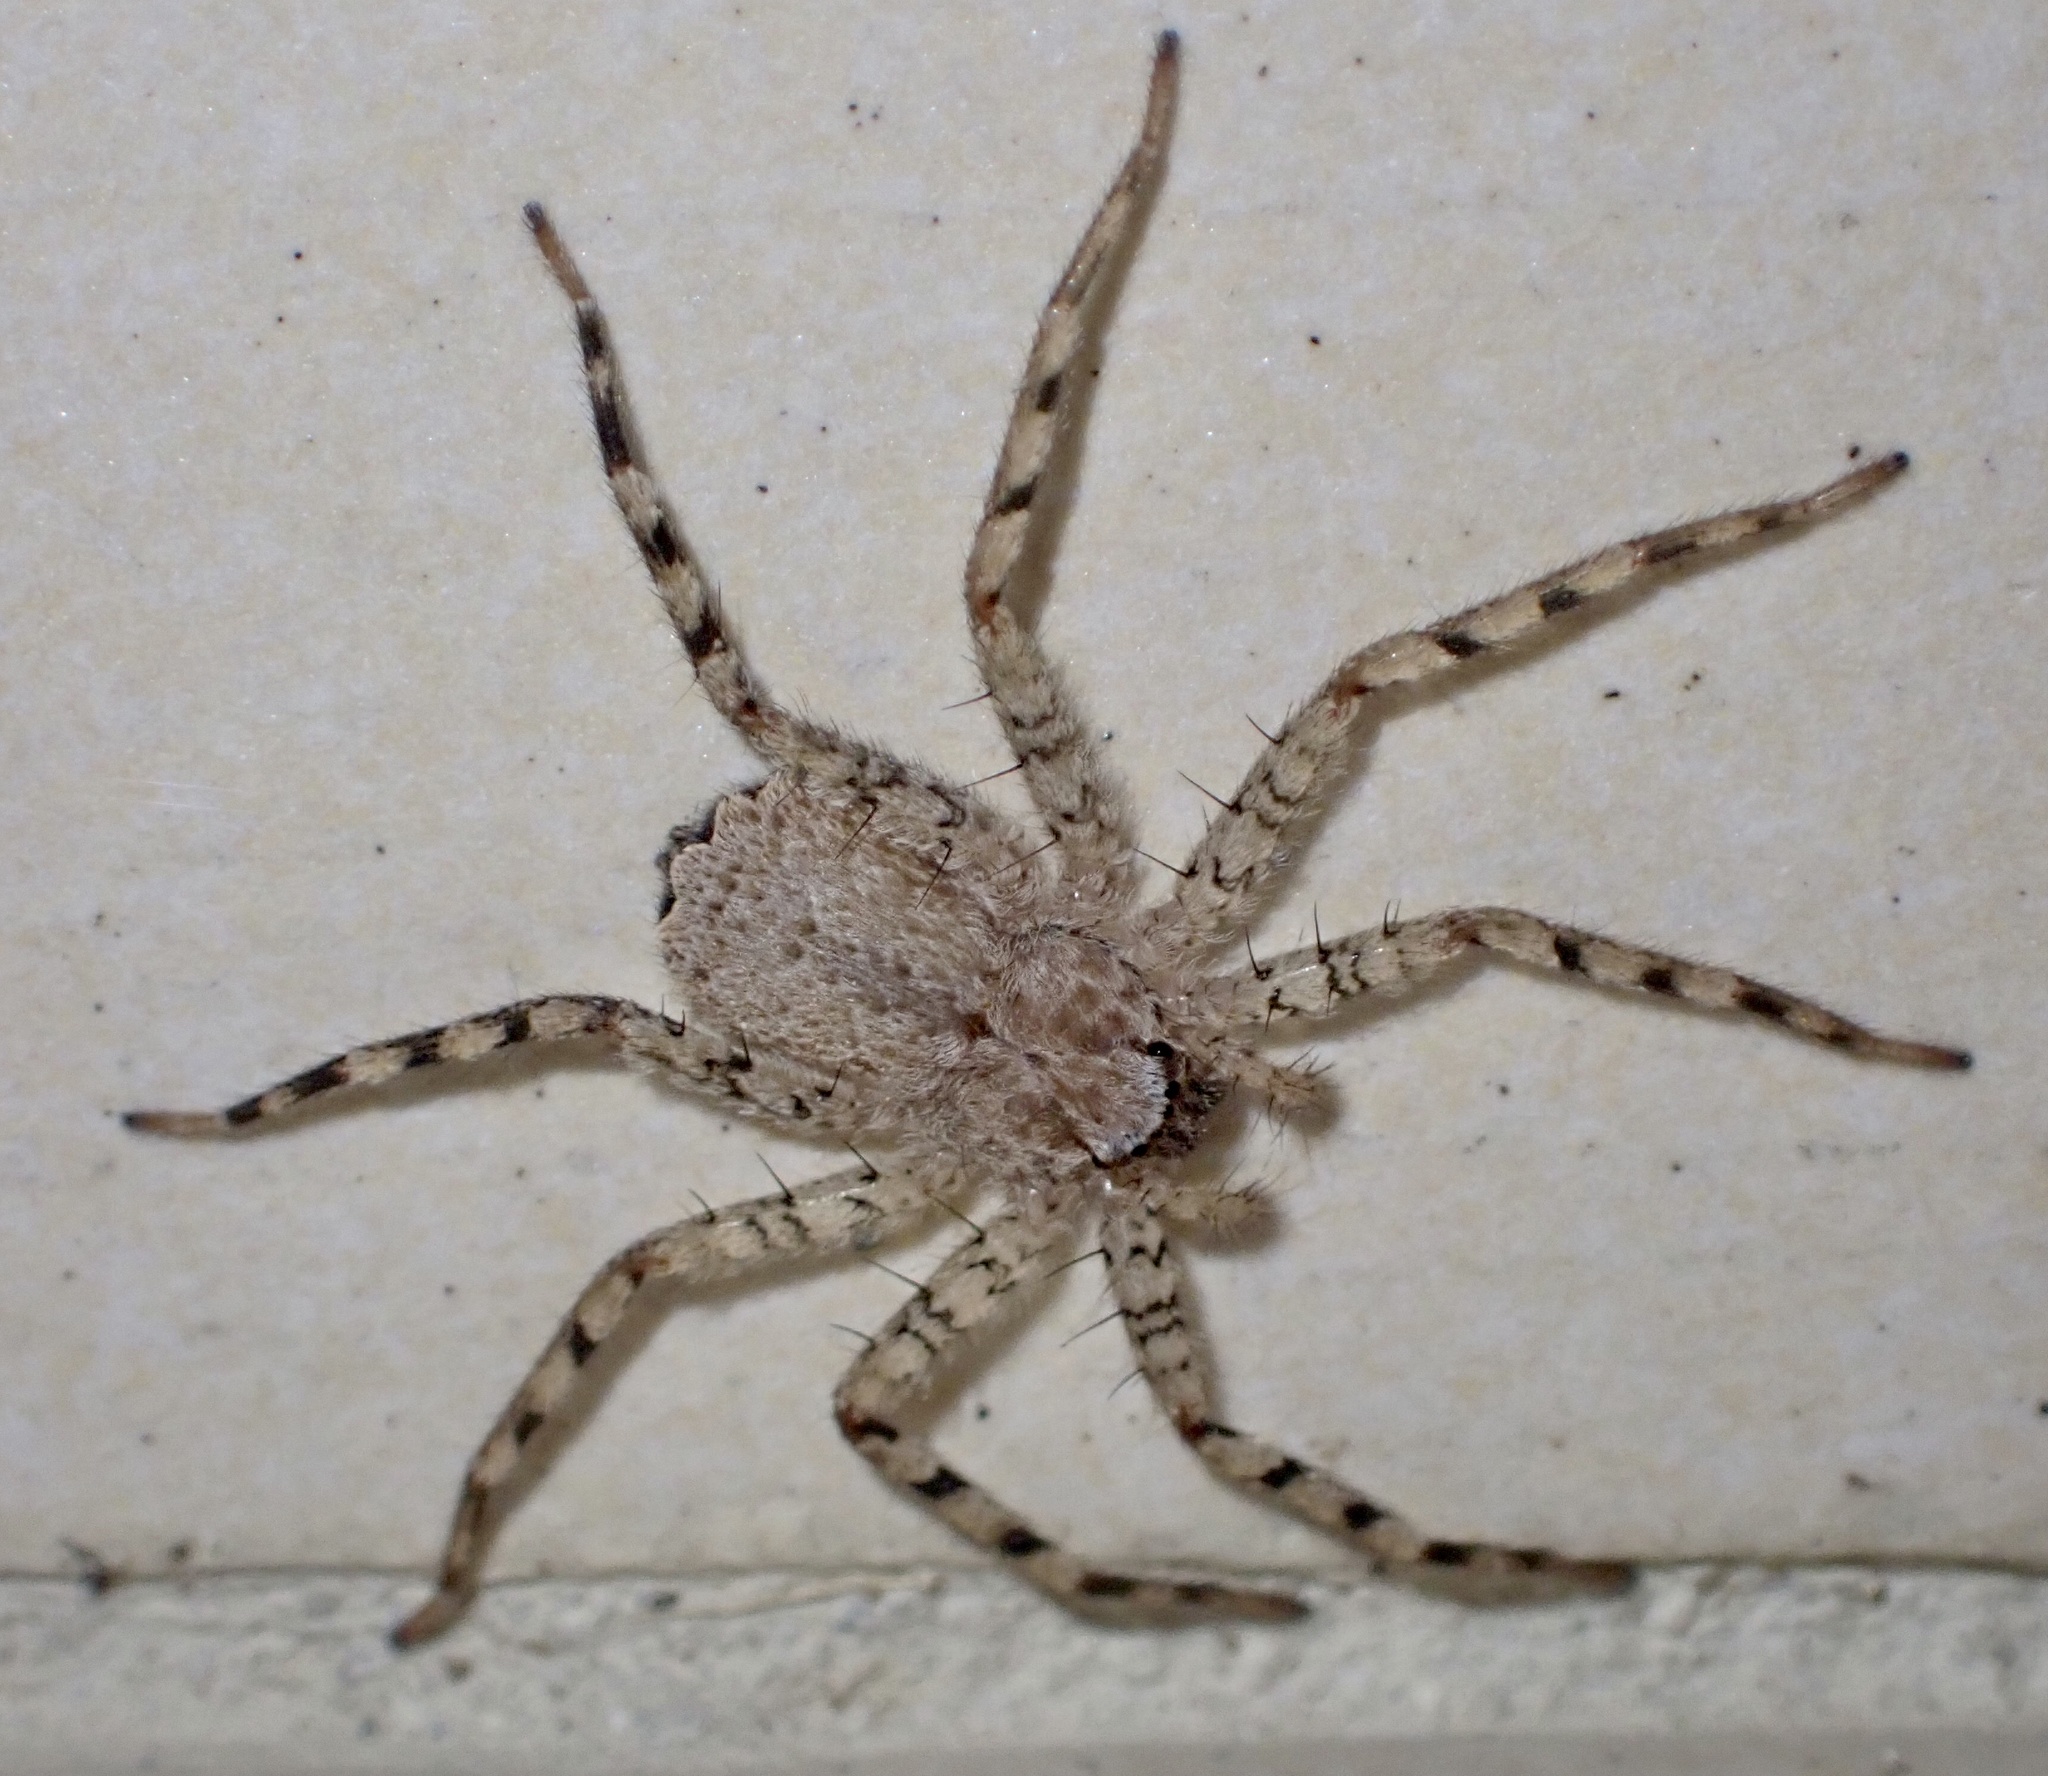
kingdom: Animalia
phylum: Arthropoda
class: Arachnida
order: Araneae
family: Selenopidae
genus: Selenops
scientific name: Selenops curazao
